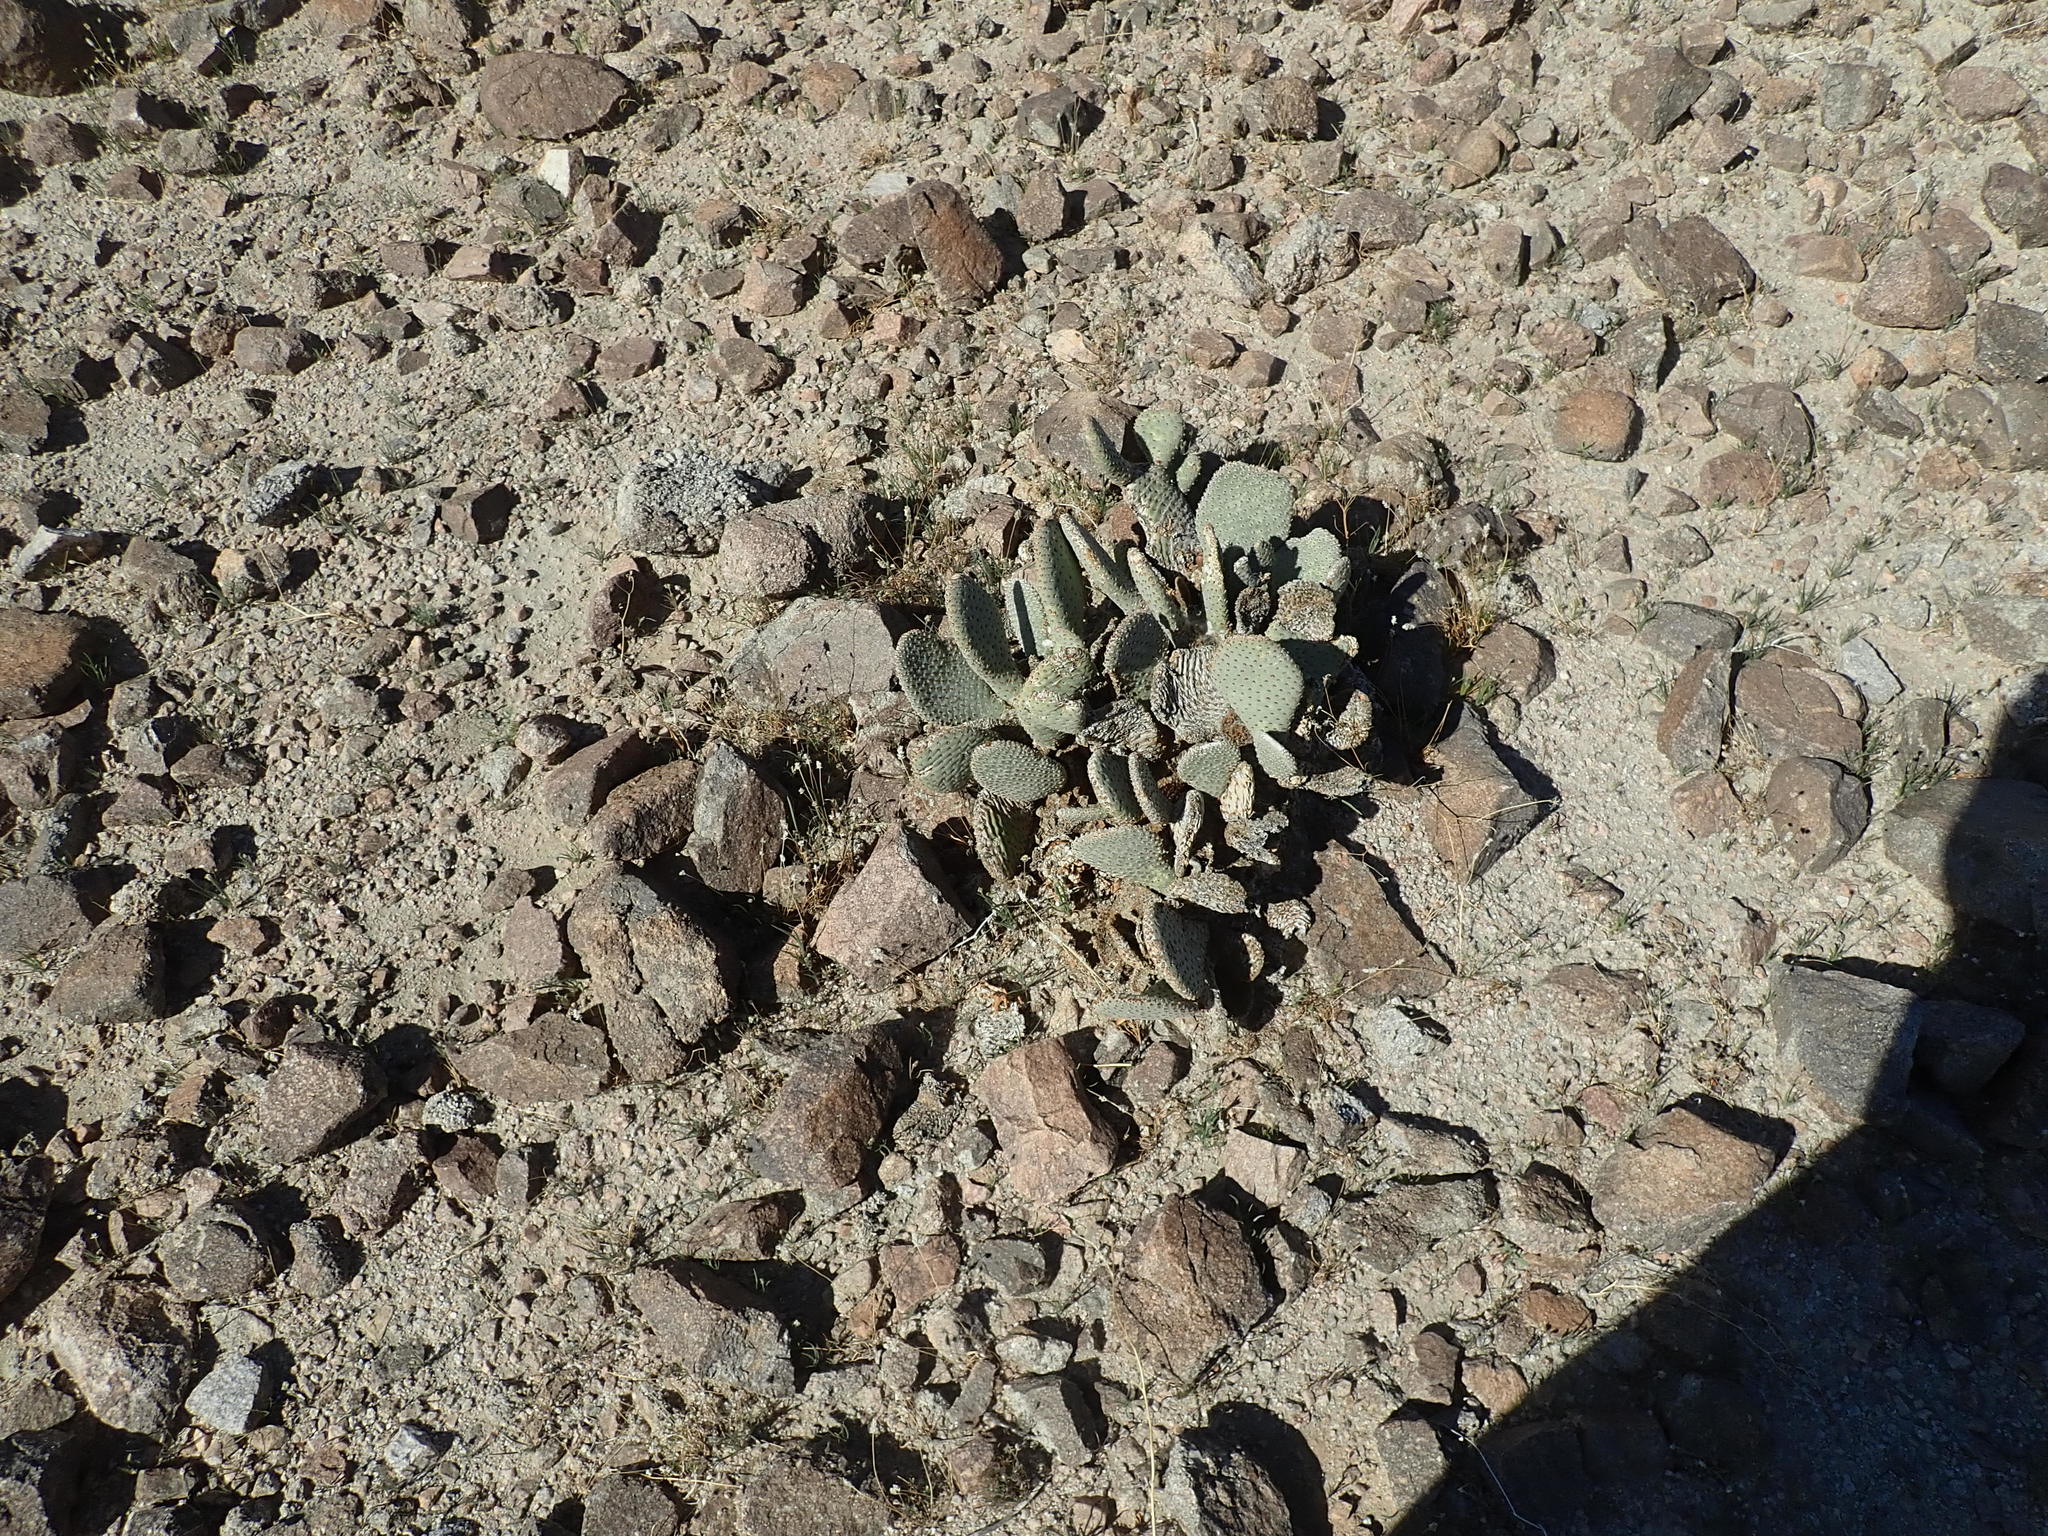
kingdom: Plantae
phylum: Tracheophyta
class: Magnoliopsida
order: Caryophyllales
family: Cactaceae
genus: Opuntia
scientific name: Opuntia basilaris
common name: Beavertail prickly-pear
